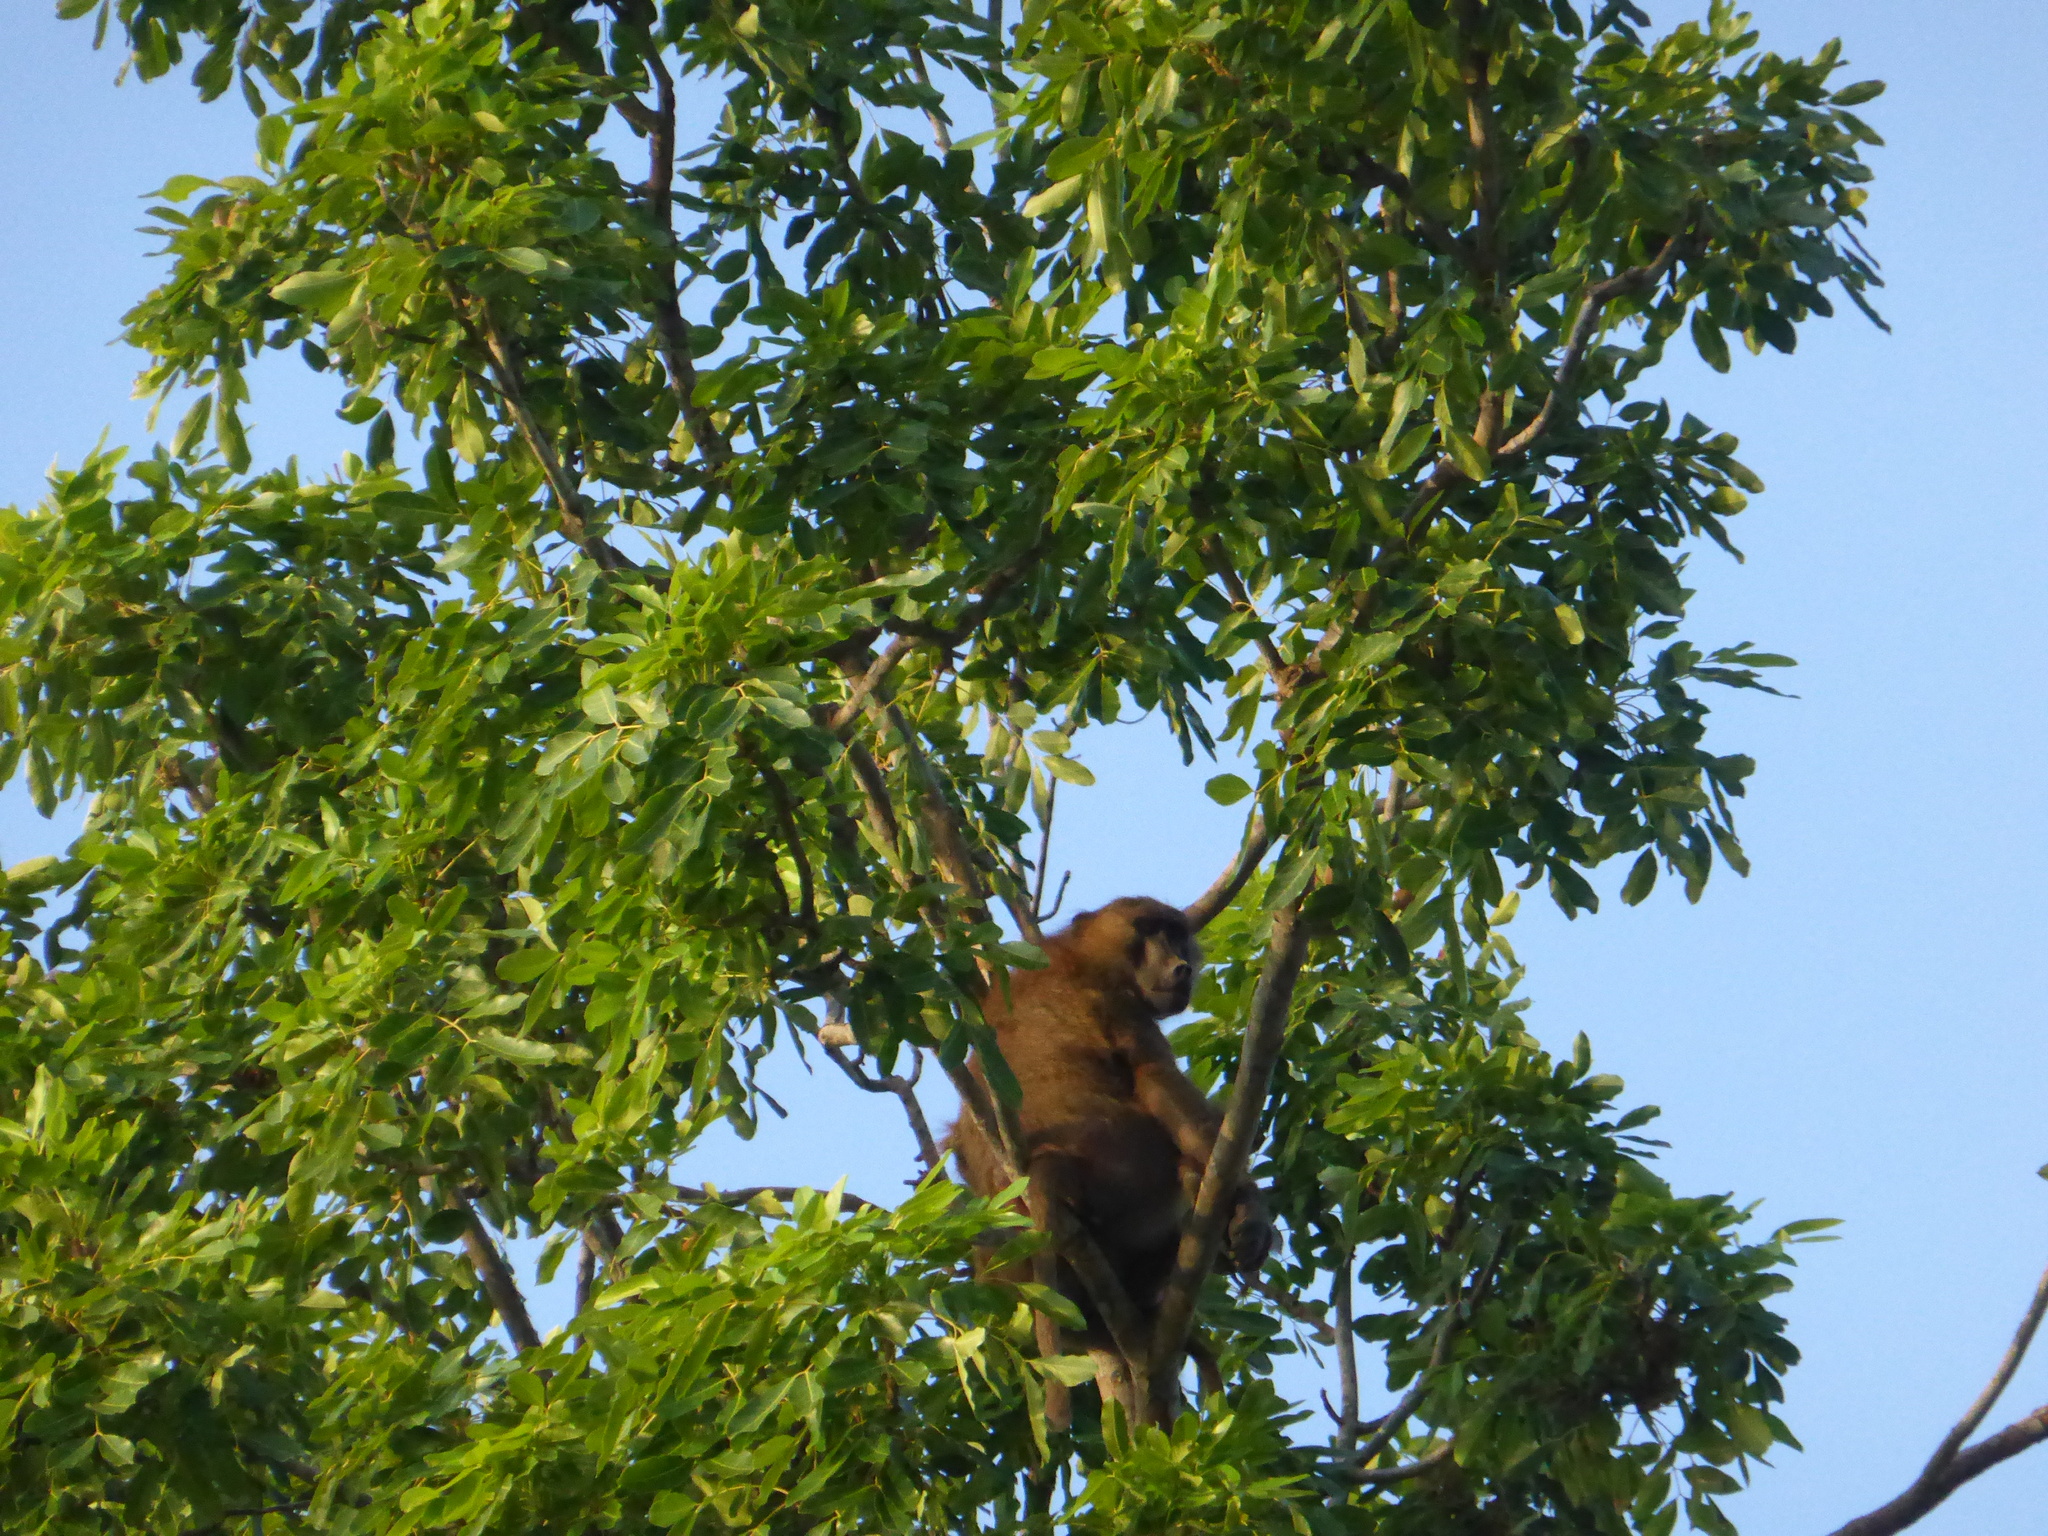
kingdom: Animalia
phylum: Chordata
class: Mammalia
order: Primates
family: Cercopithecidae
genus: Papio
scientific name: Papio papio
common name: Guinea baboon
